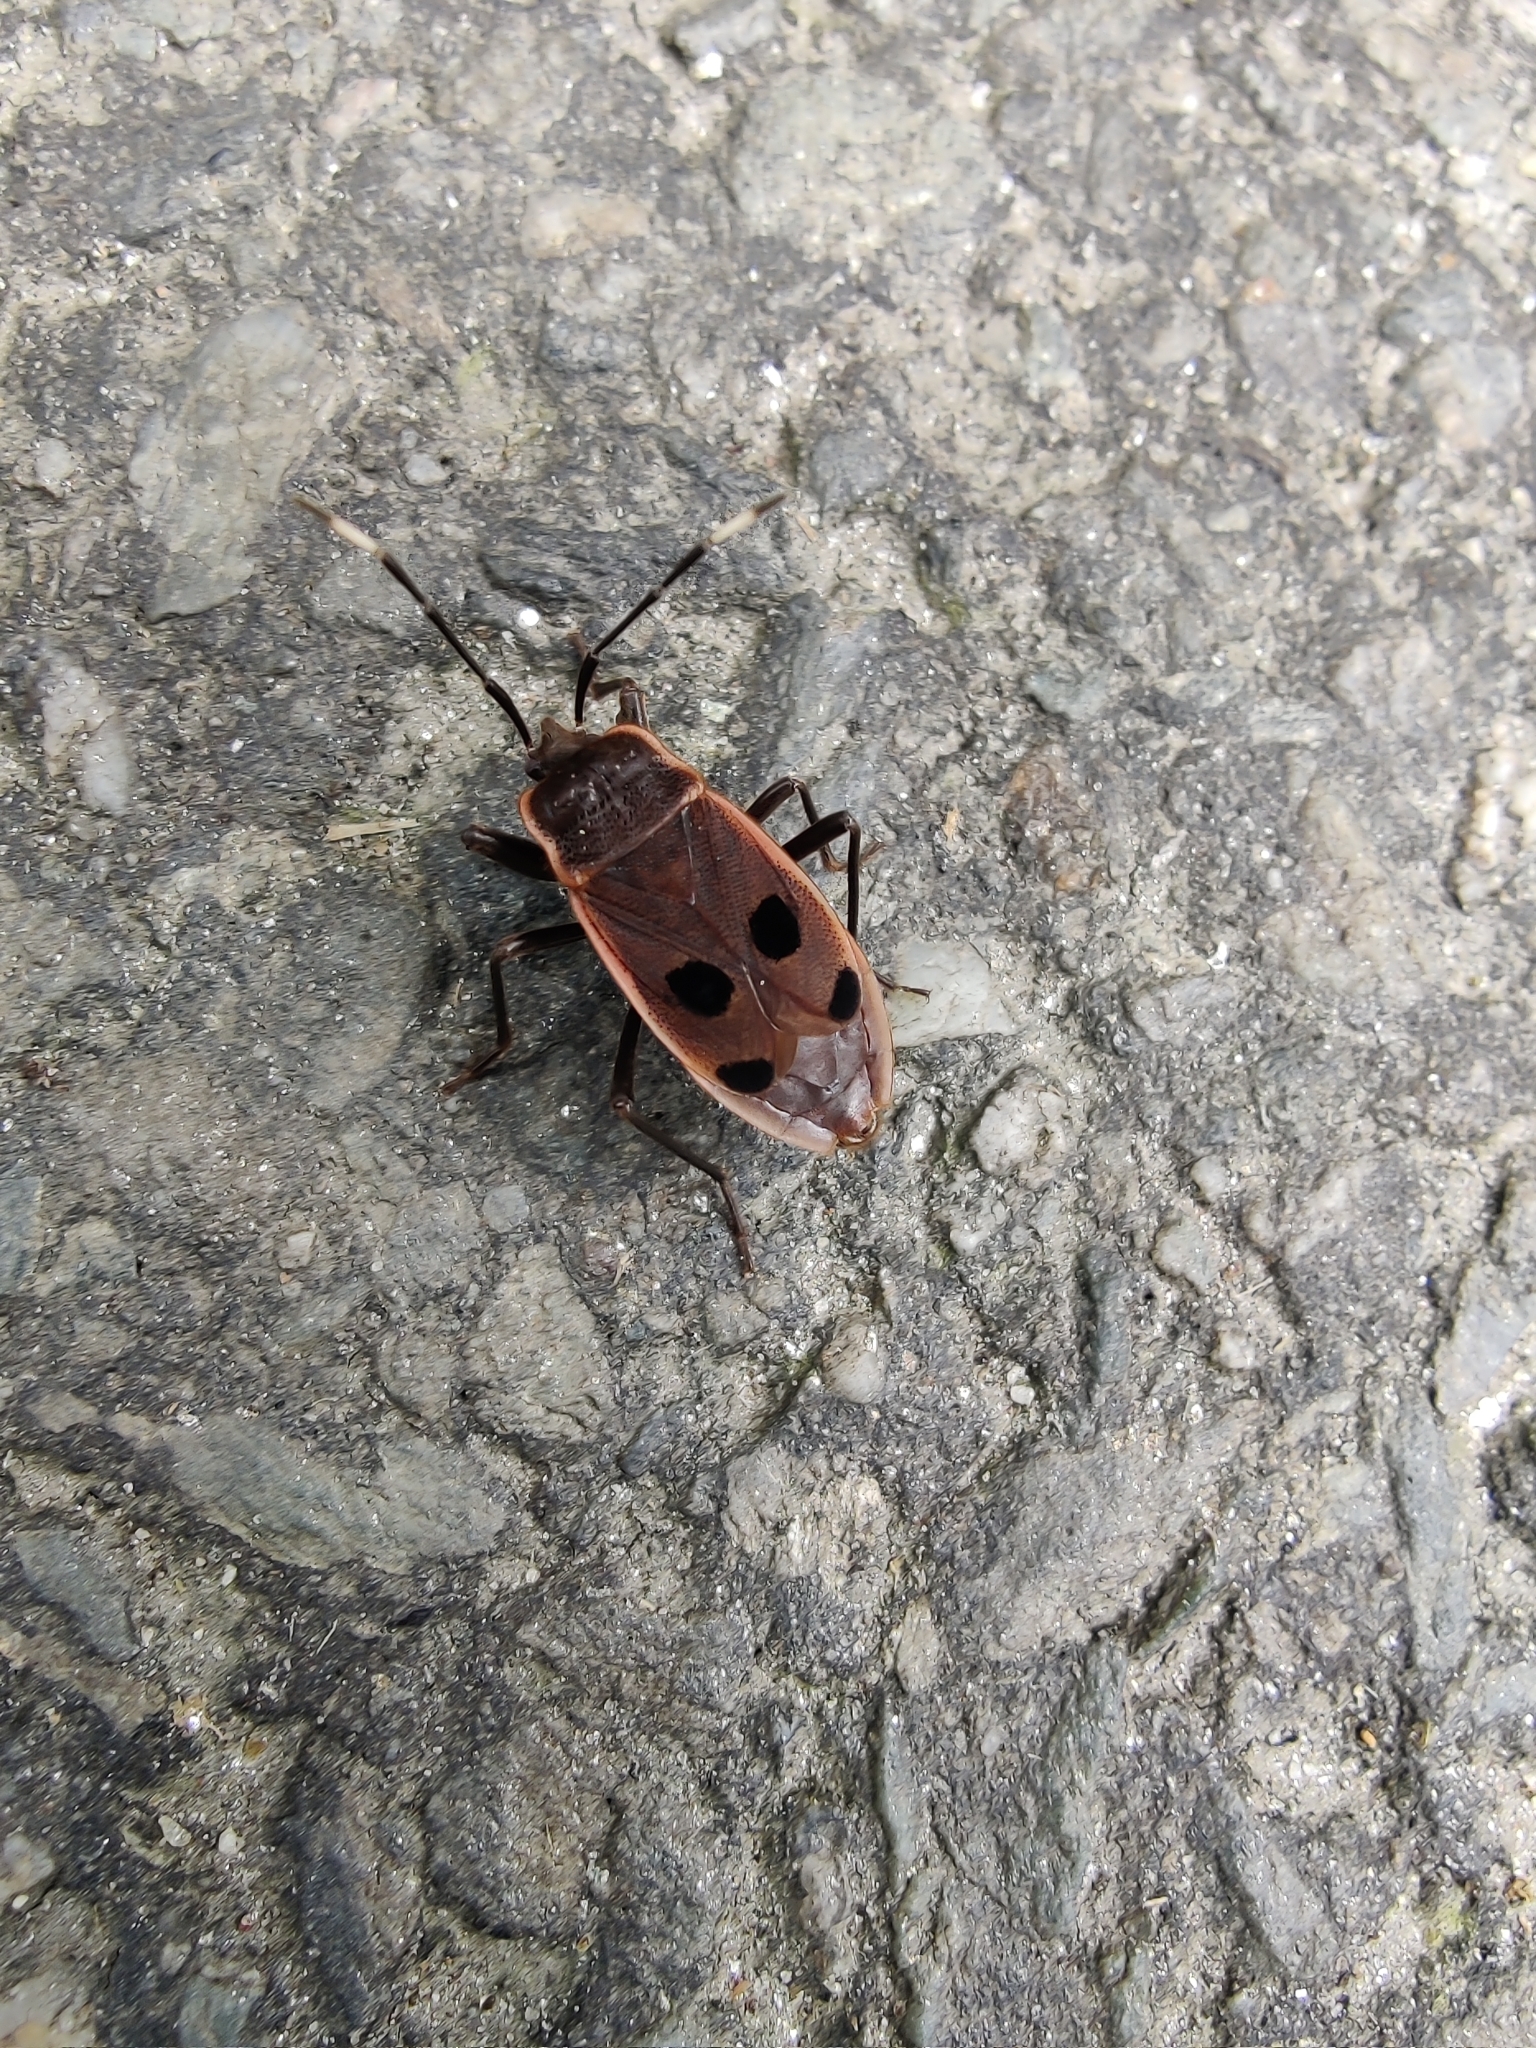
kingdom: Animalia
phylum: Arthropoda
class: Insecta
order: Hemiptera
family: Largidae
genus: Jindraia
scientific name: Jindraia dimorphica
